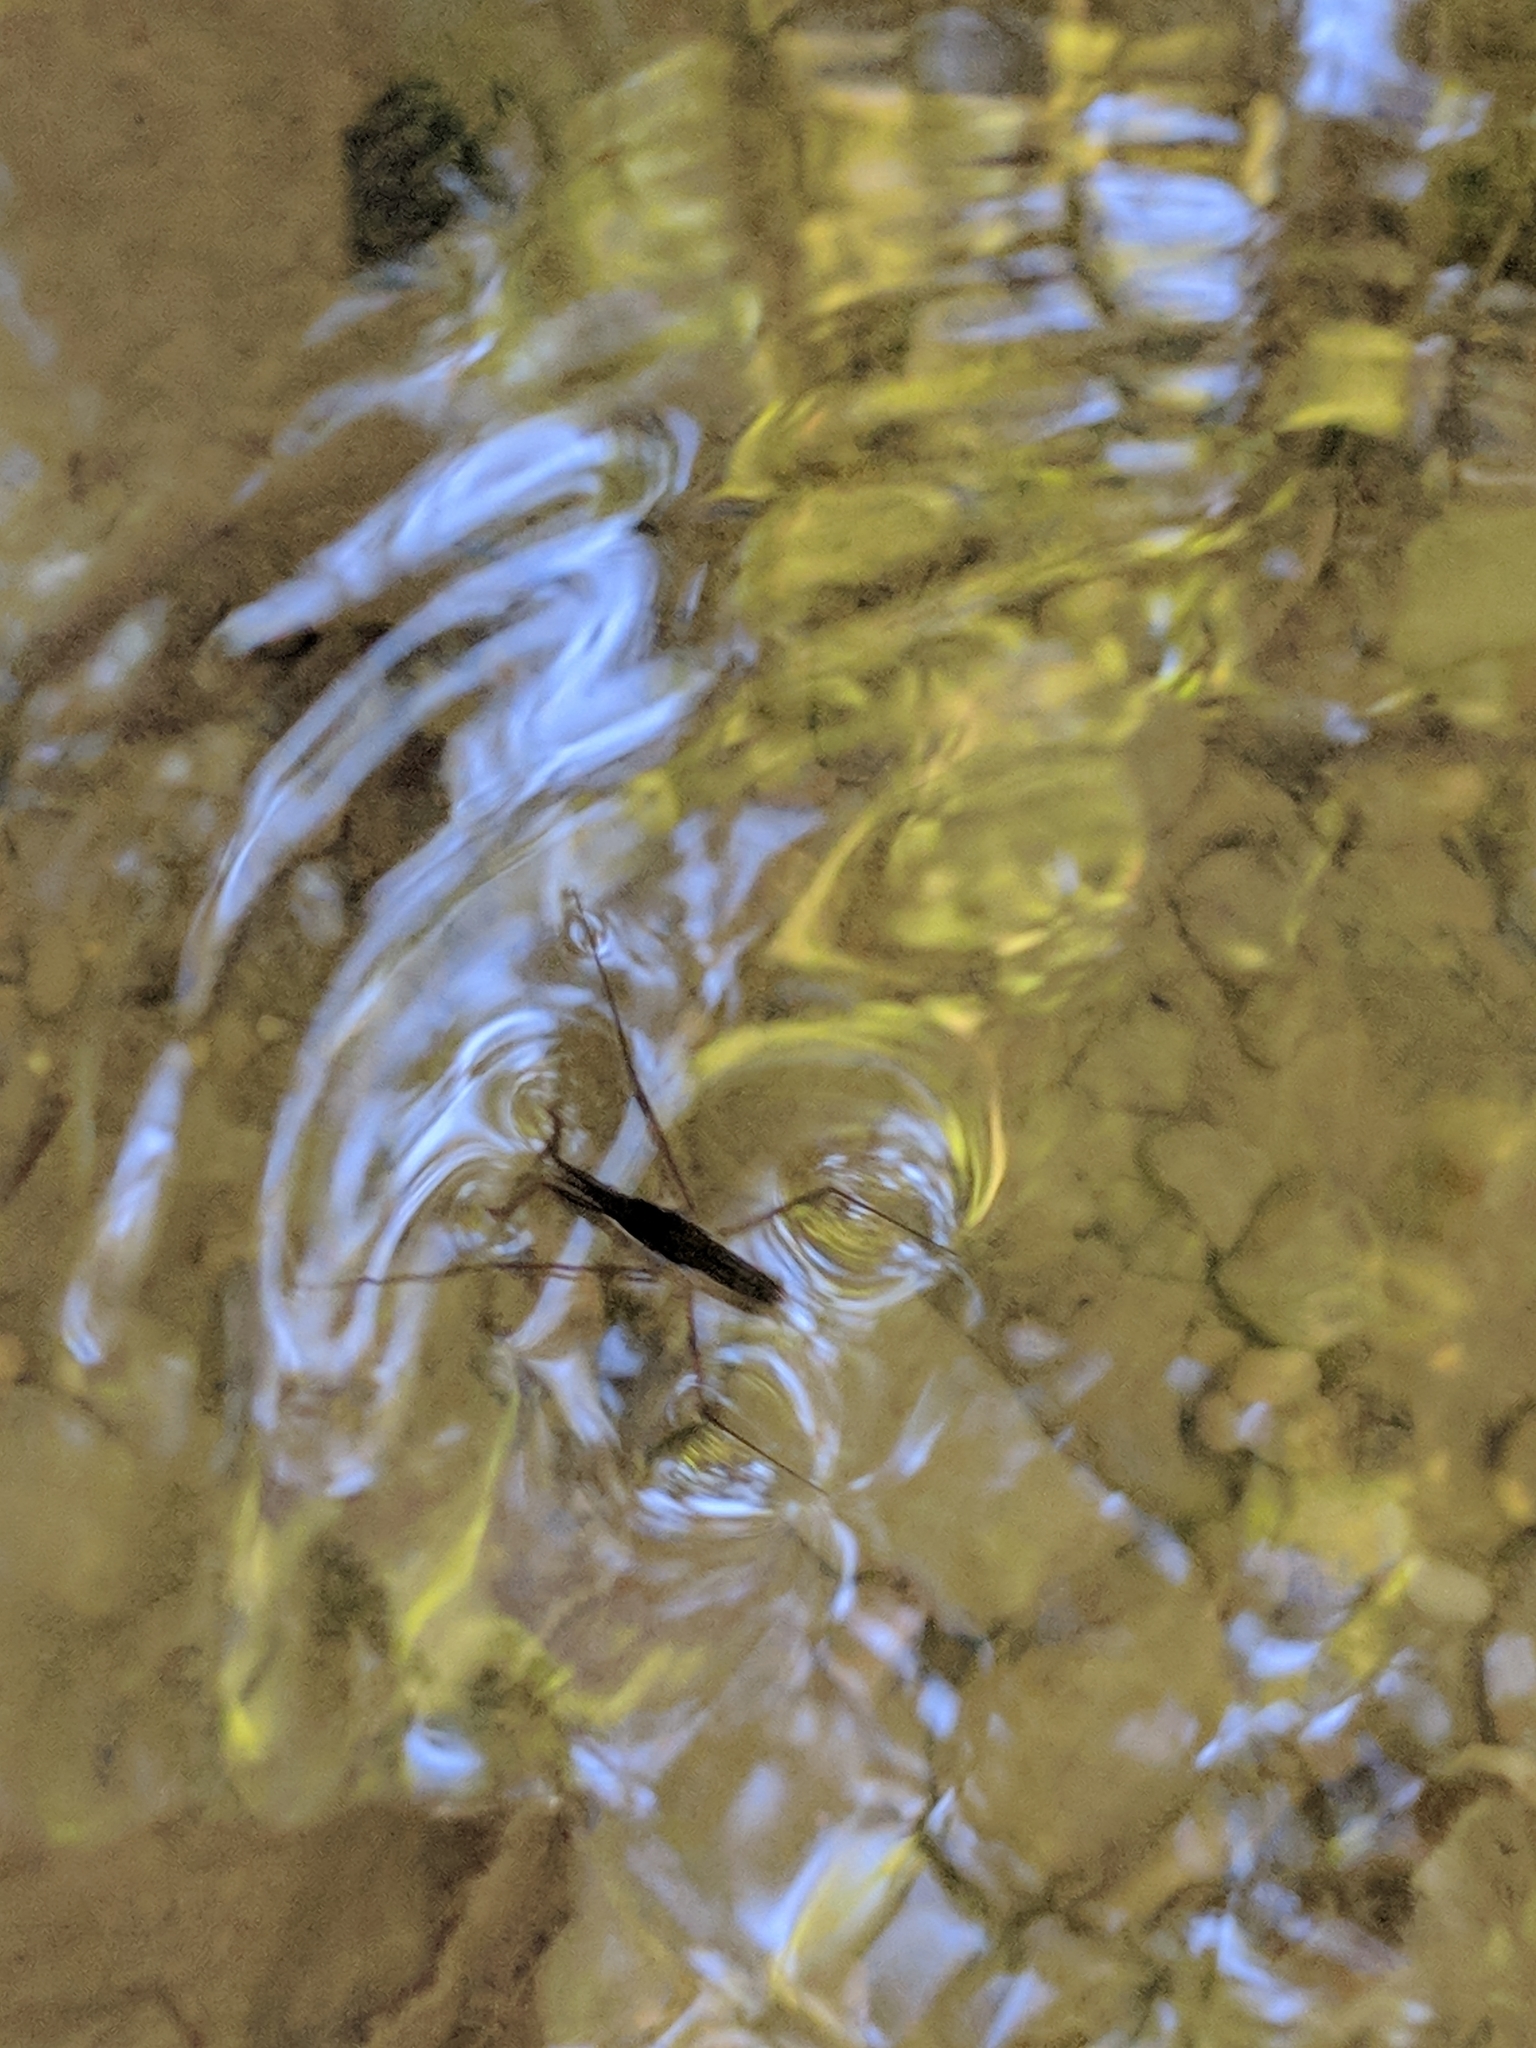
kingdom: Animalia
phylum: Arthropoda
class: Insecta
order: Hemiptera
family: Gerridae
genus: Aquarius
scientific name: Aquarius
